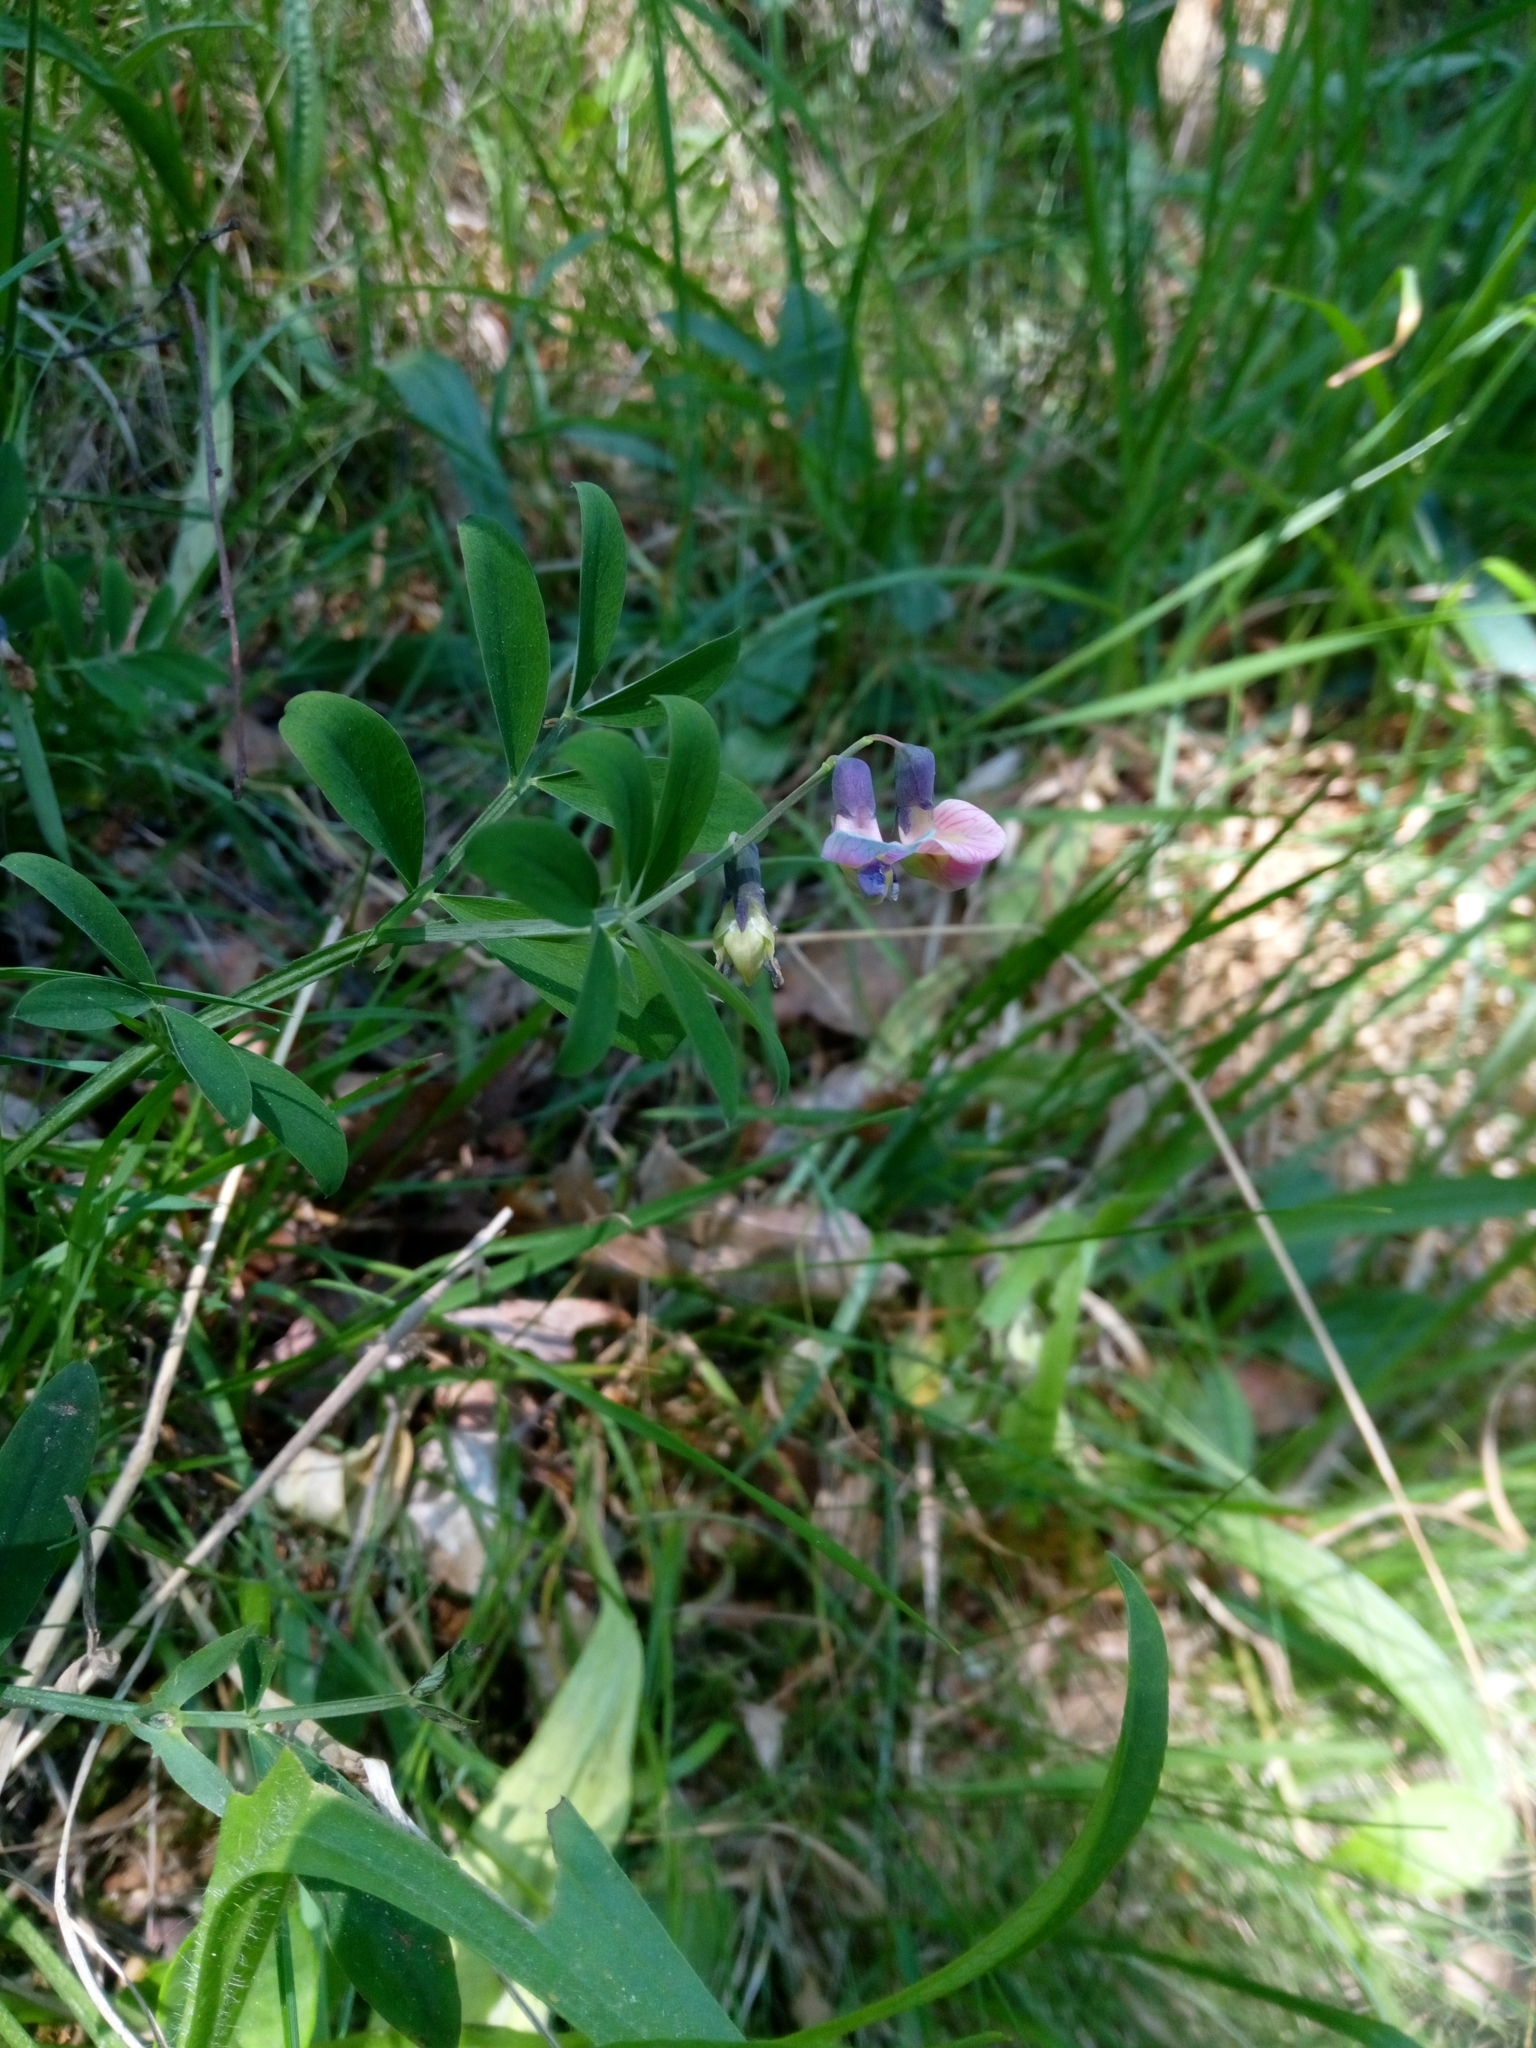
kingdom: Plantae
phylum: Tracheophyta
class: Magnoliopsida
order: Fabales
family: Fabaceae
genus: Lathyrus
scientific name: Lathyrus linifolius
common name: Bitter-vetch
